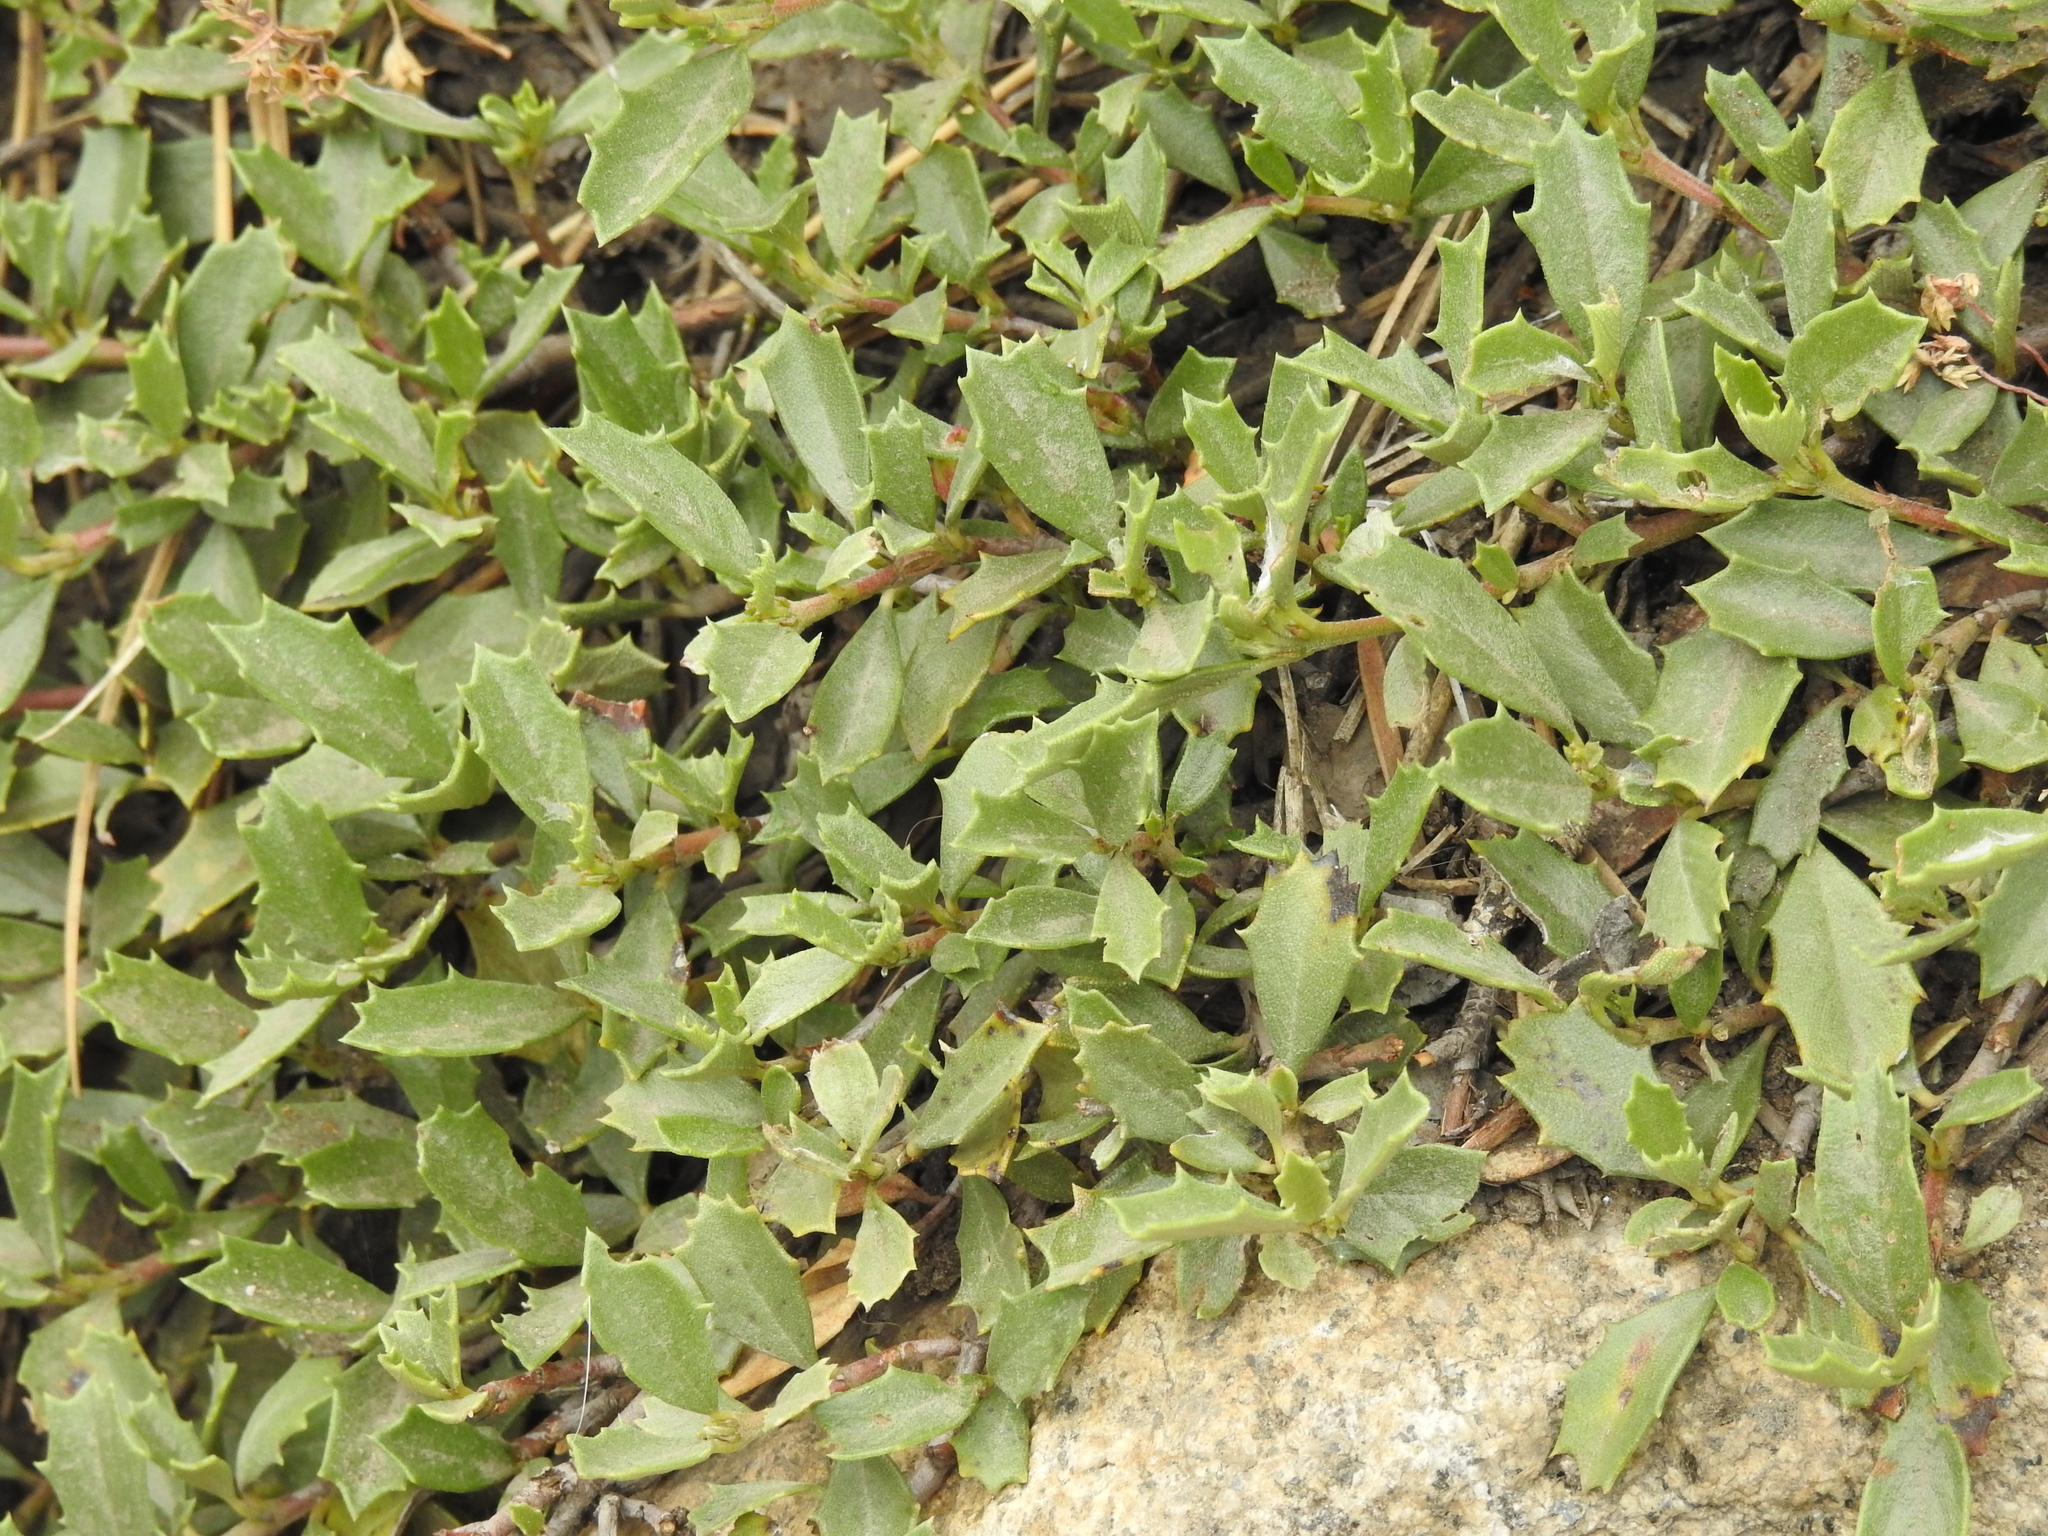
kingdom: Plantae
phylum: Tracheophyta
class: Magnoliopsida
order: Rosales
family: Rhamnaceae
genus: Ceanothus
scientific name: Ceanothus prostratus
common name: Mahala-mat
